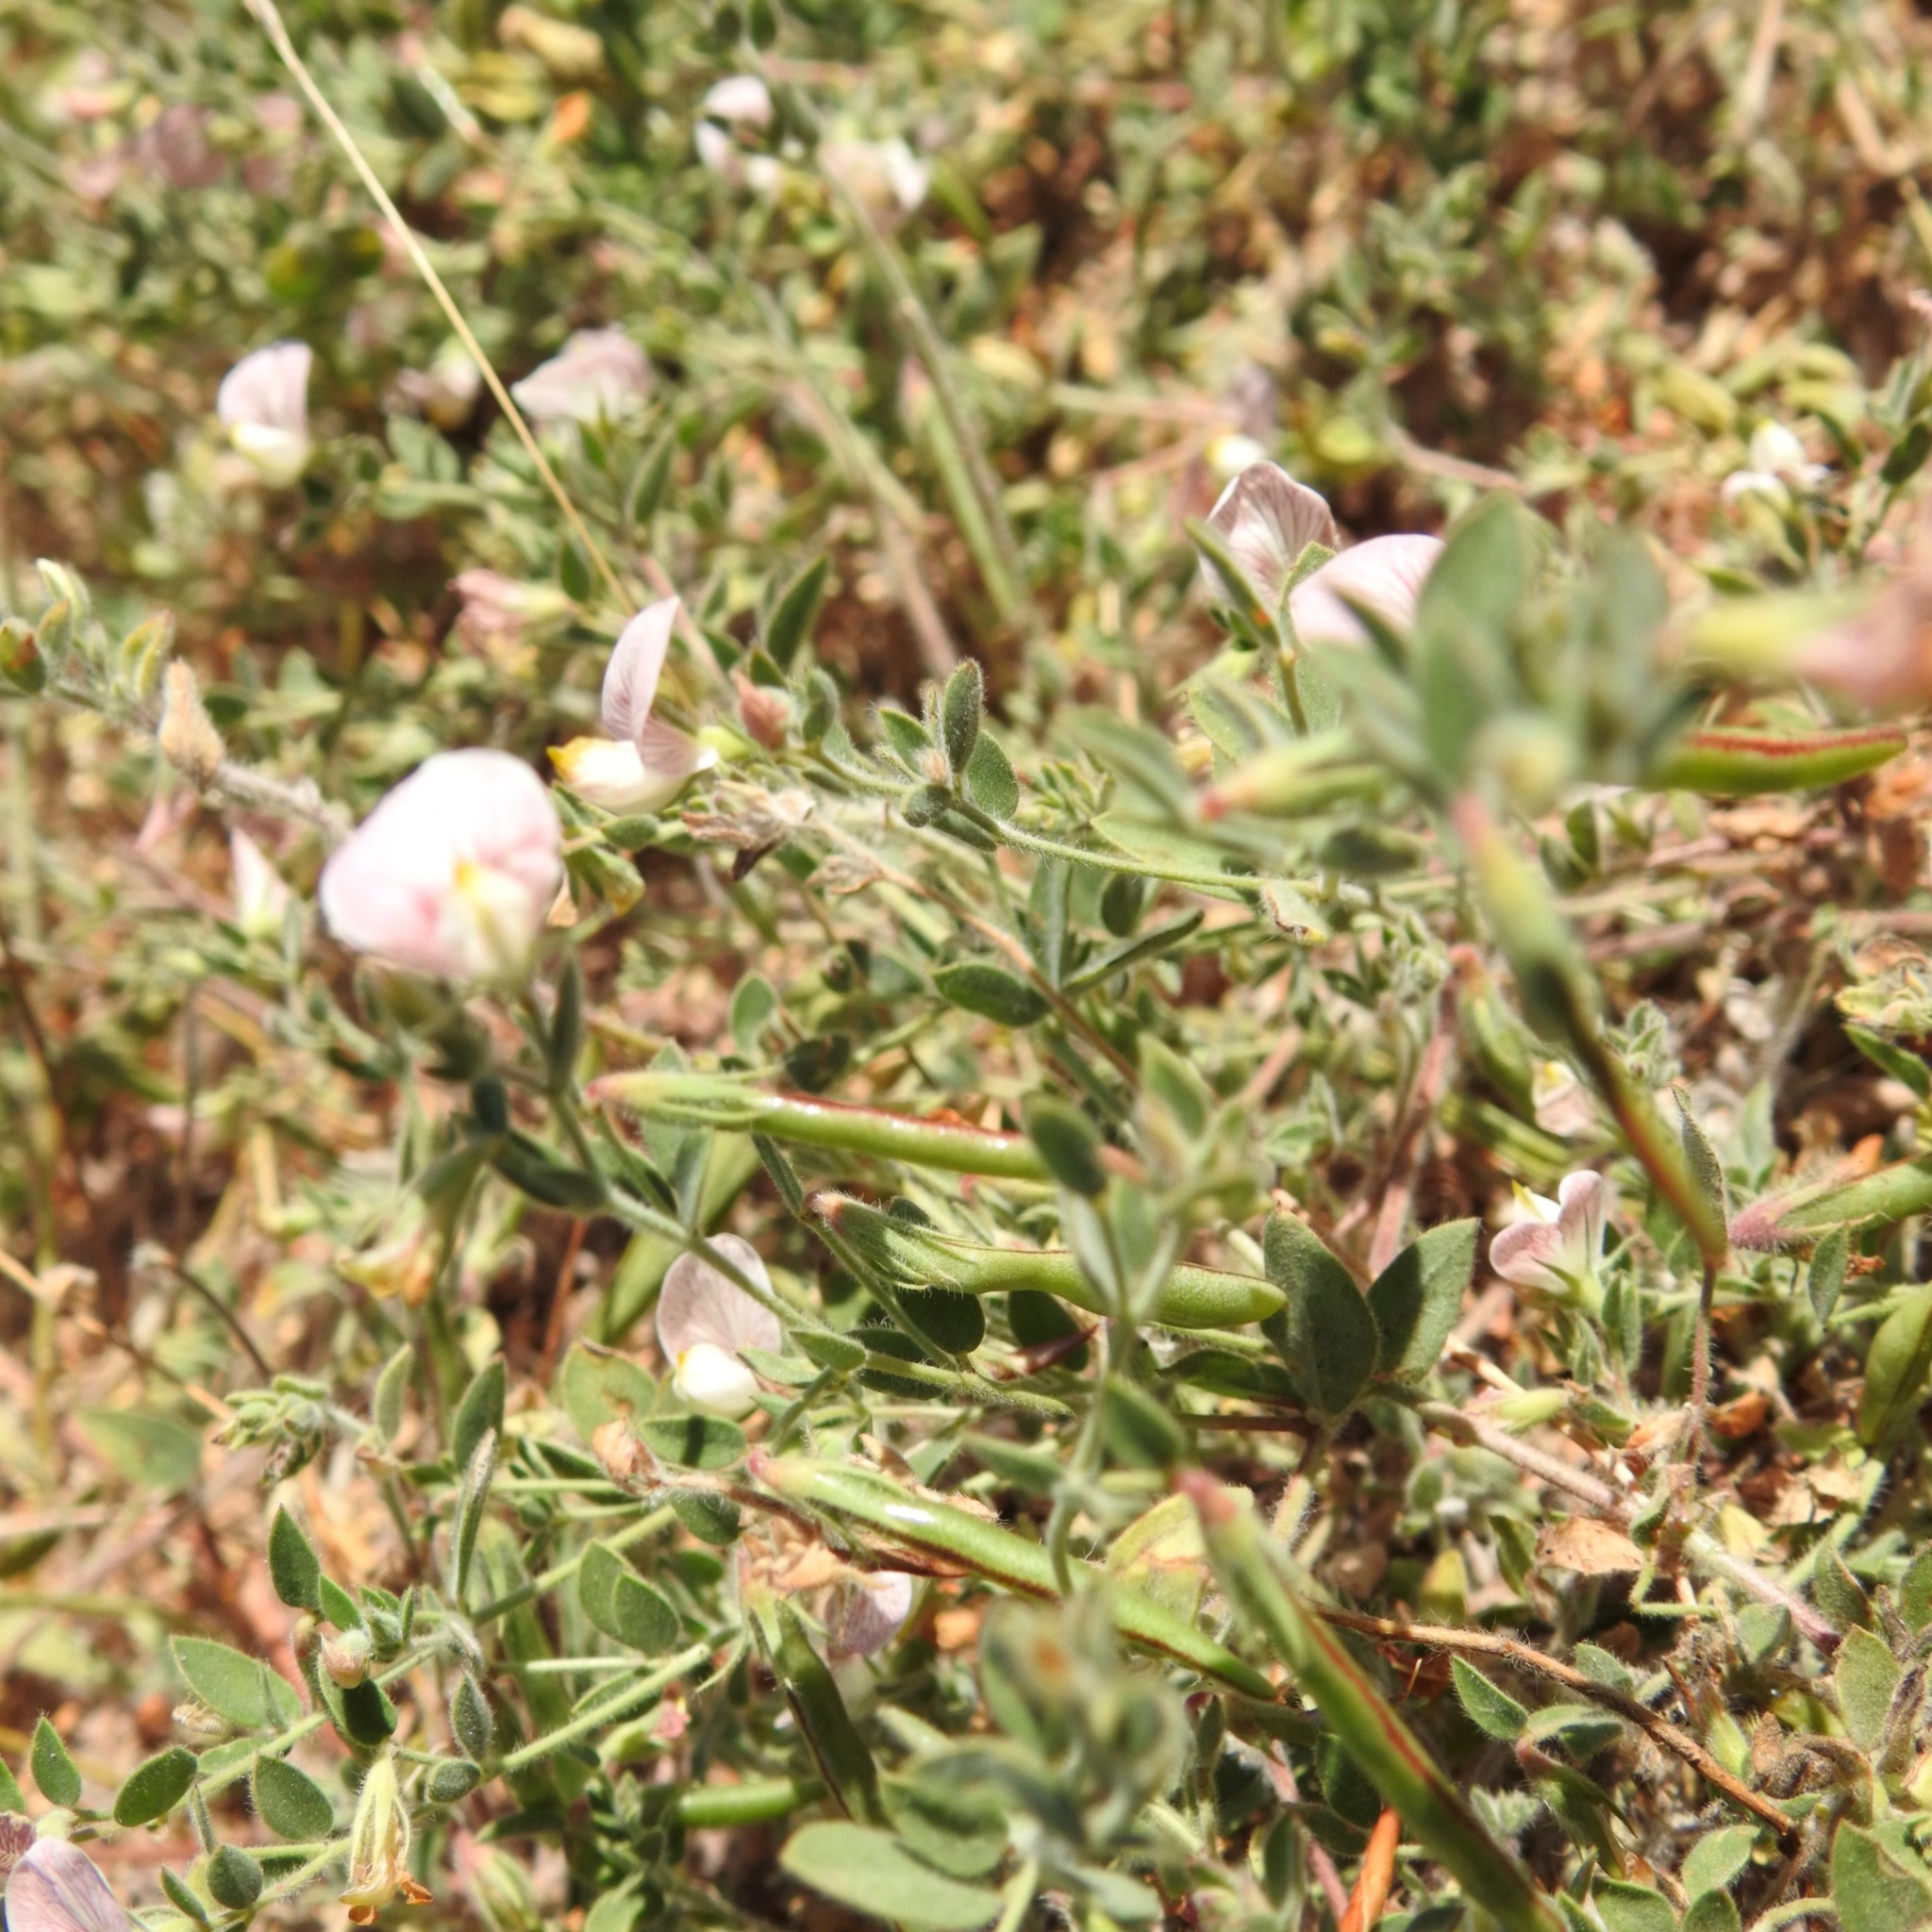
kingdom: Plantae
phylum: Tracheophyta
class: Magnoliopsida
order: Fabales
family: Fabaceae
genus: Acmispon
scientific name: Acmispon americanus
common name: American bird's-foot trefoil
